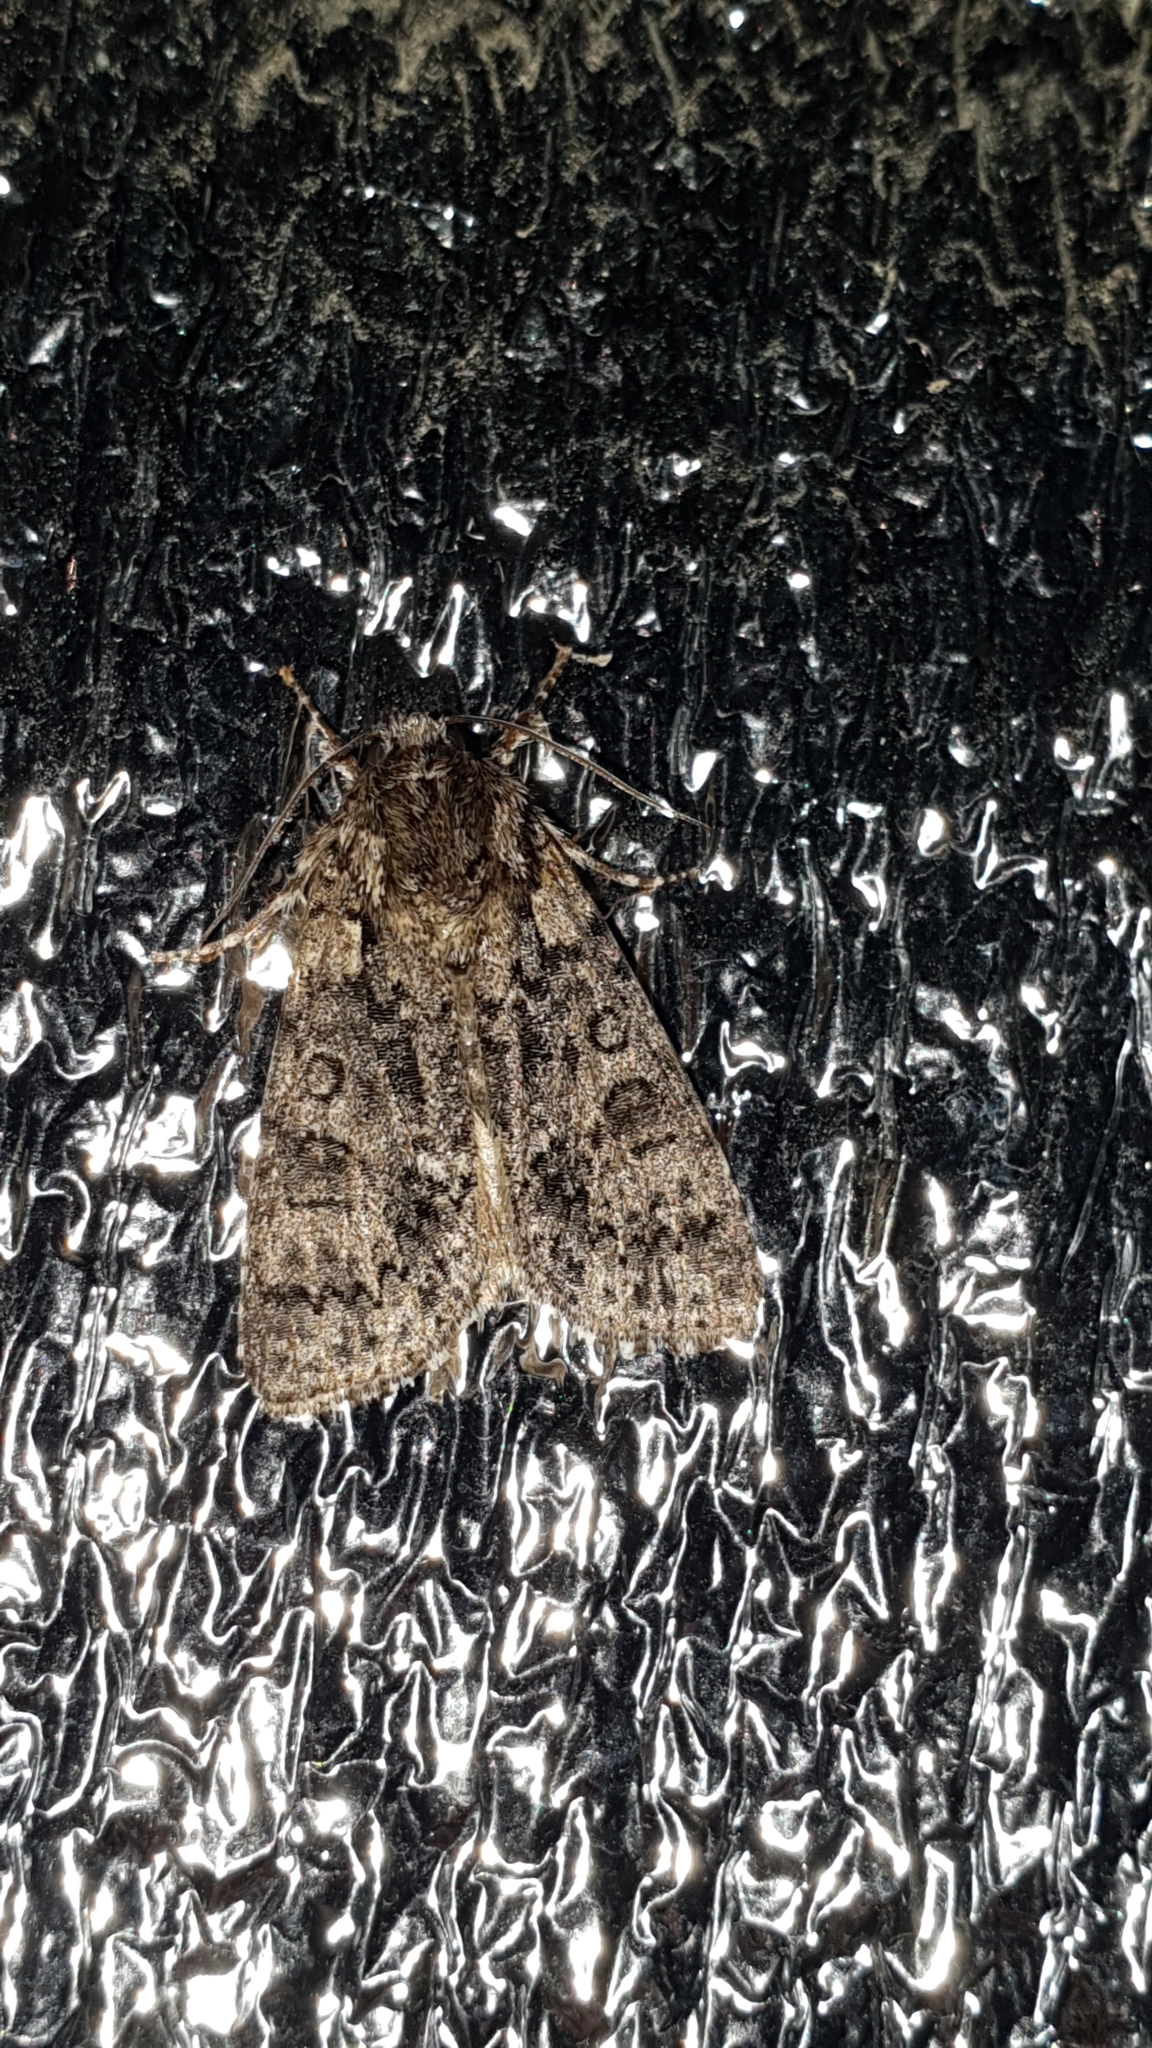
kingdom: Animalia
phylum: Arthropoda
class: Insecta
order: Lepidoptera
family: Noctuidae
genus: Acronicta
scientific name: Acronicta rumicis
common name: Knot grass
